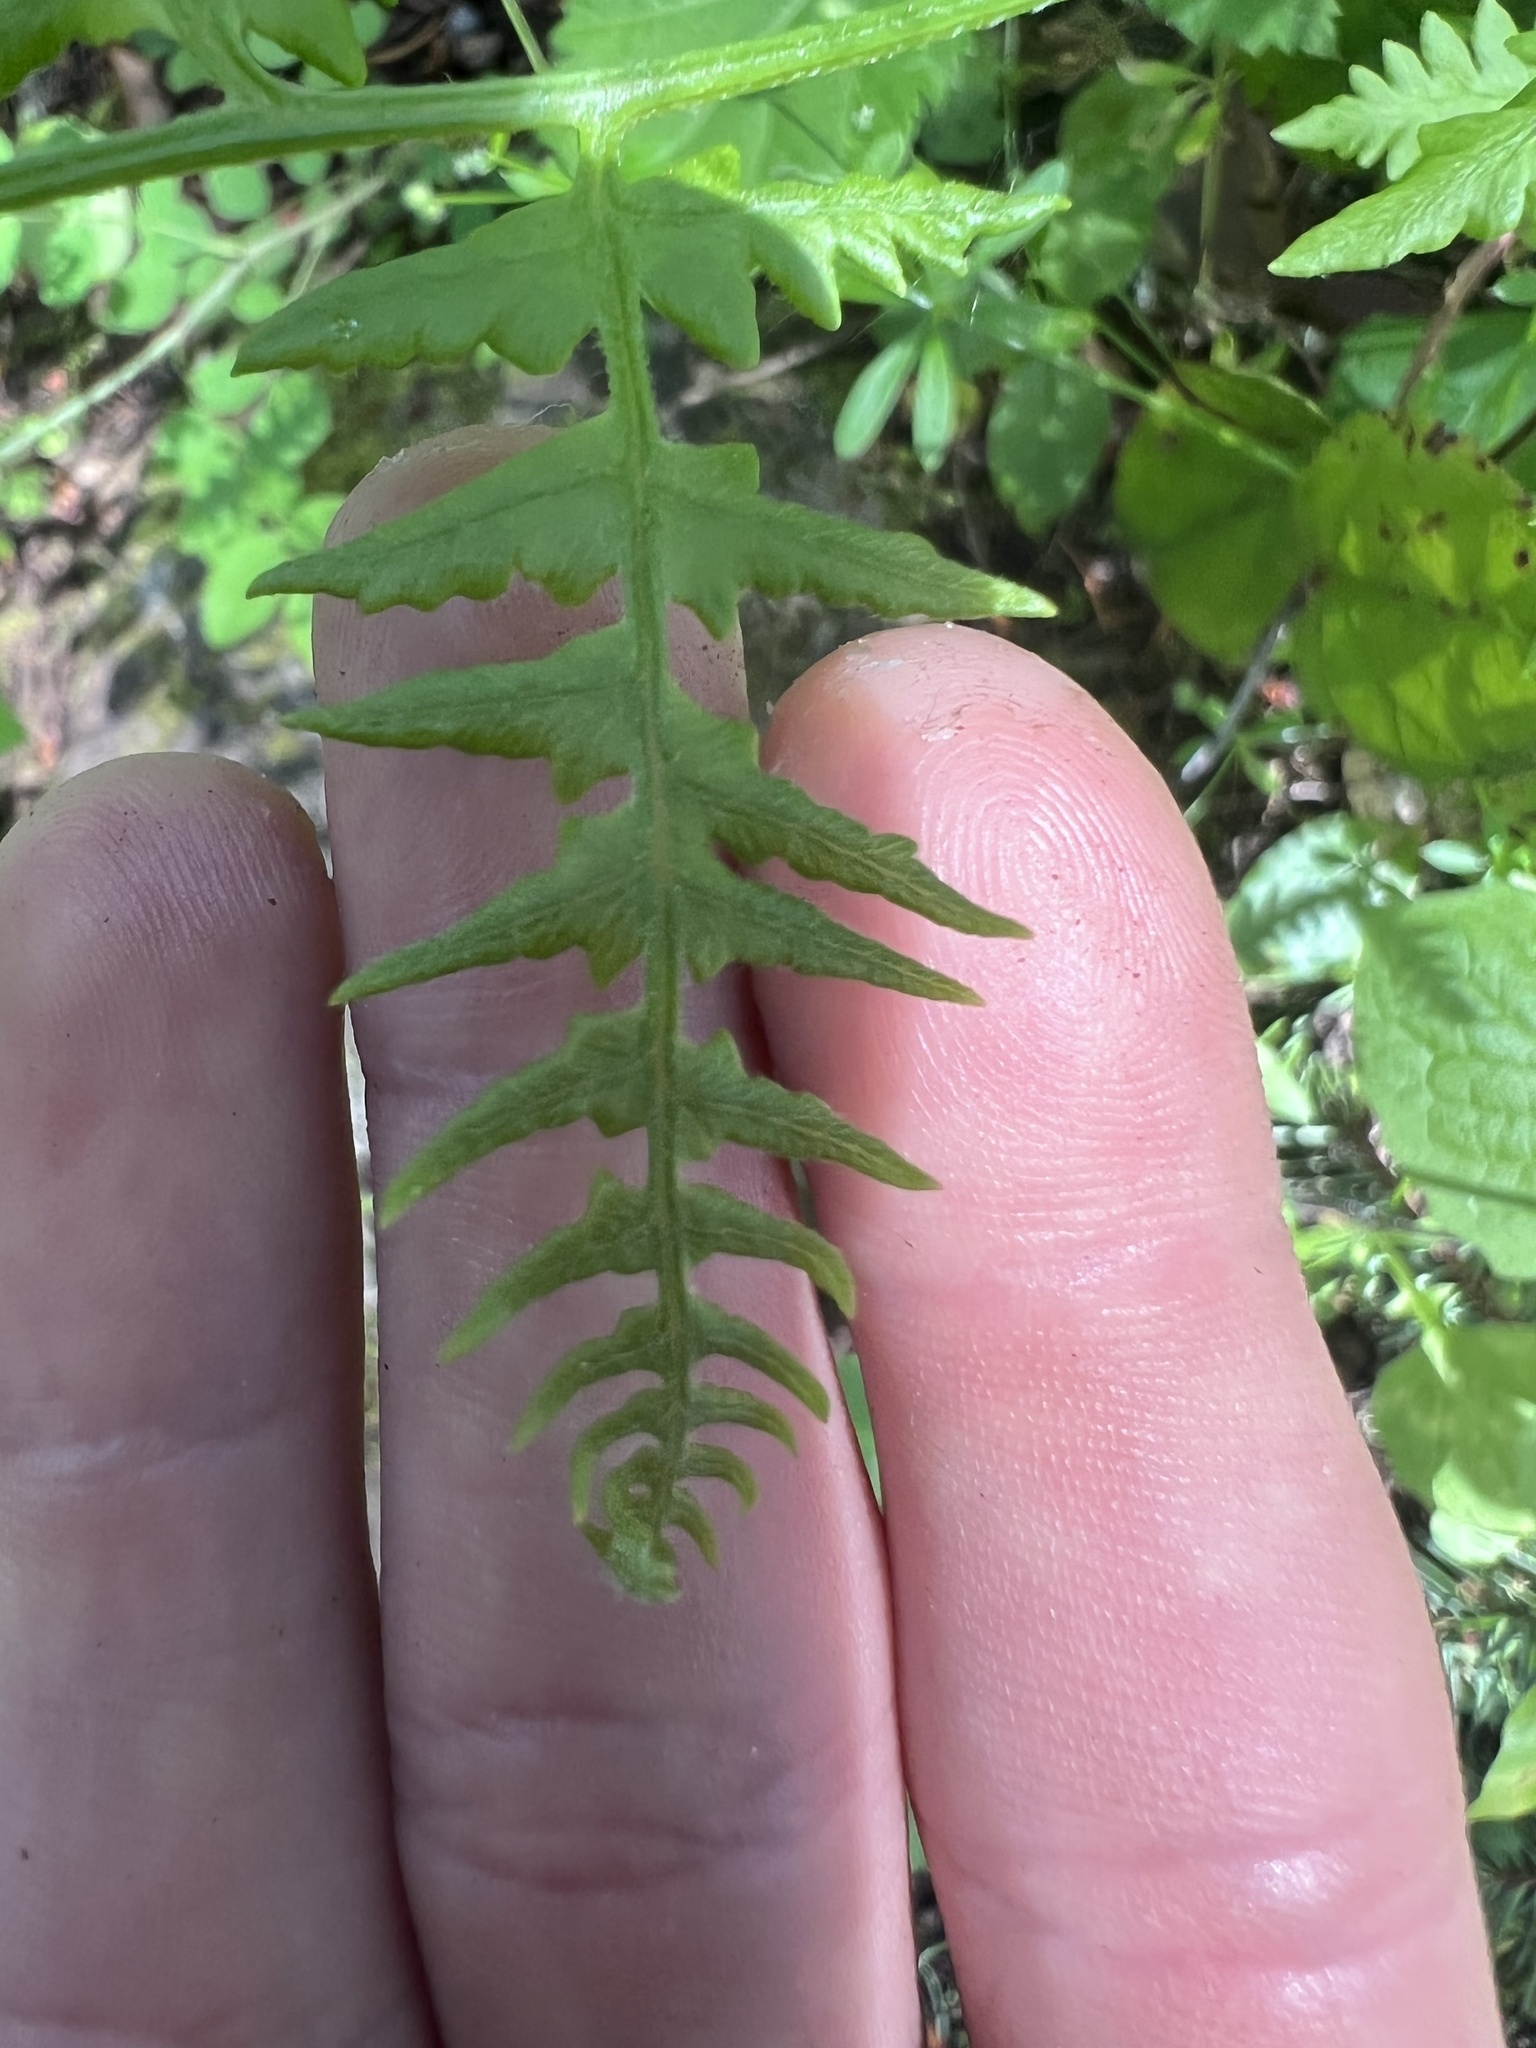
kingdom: Plantae
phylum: Tracheophyta
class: Polypodiopsida
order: Polypodiales
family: Dennstaedtiaceae
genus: Pteridium
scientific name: Pteridium aquilinum
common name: Bracken
